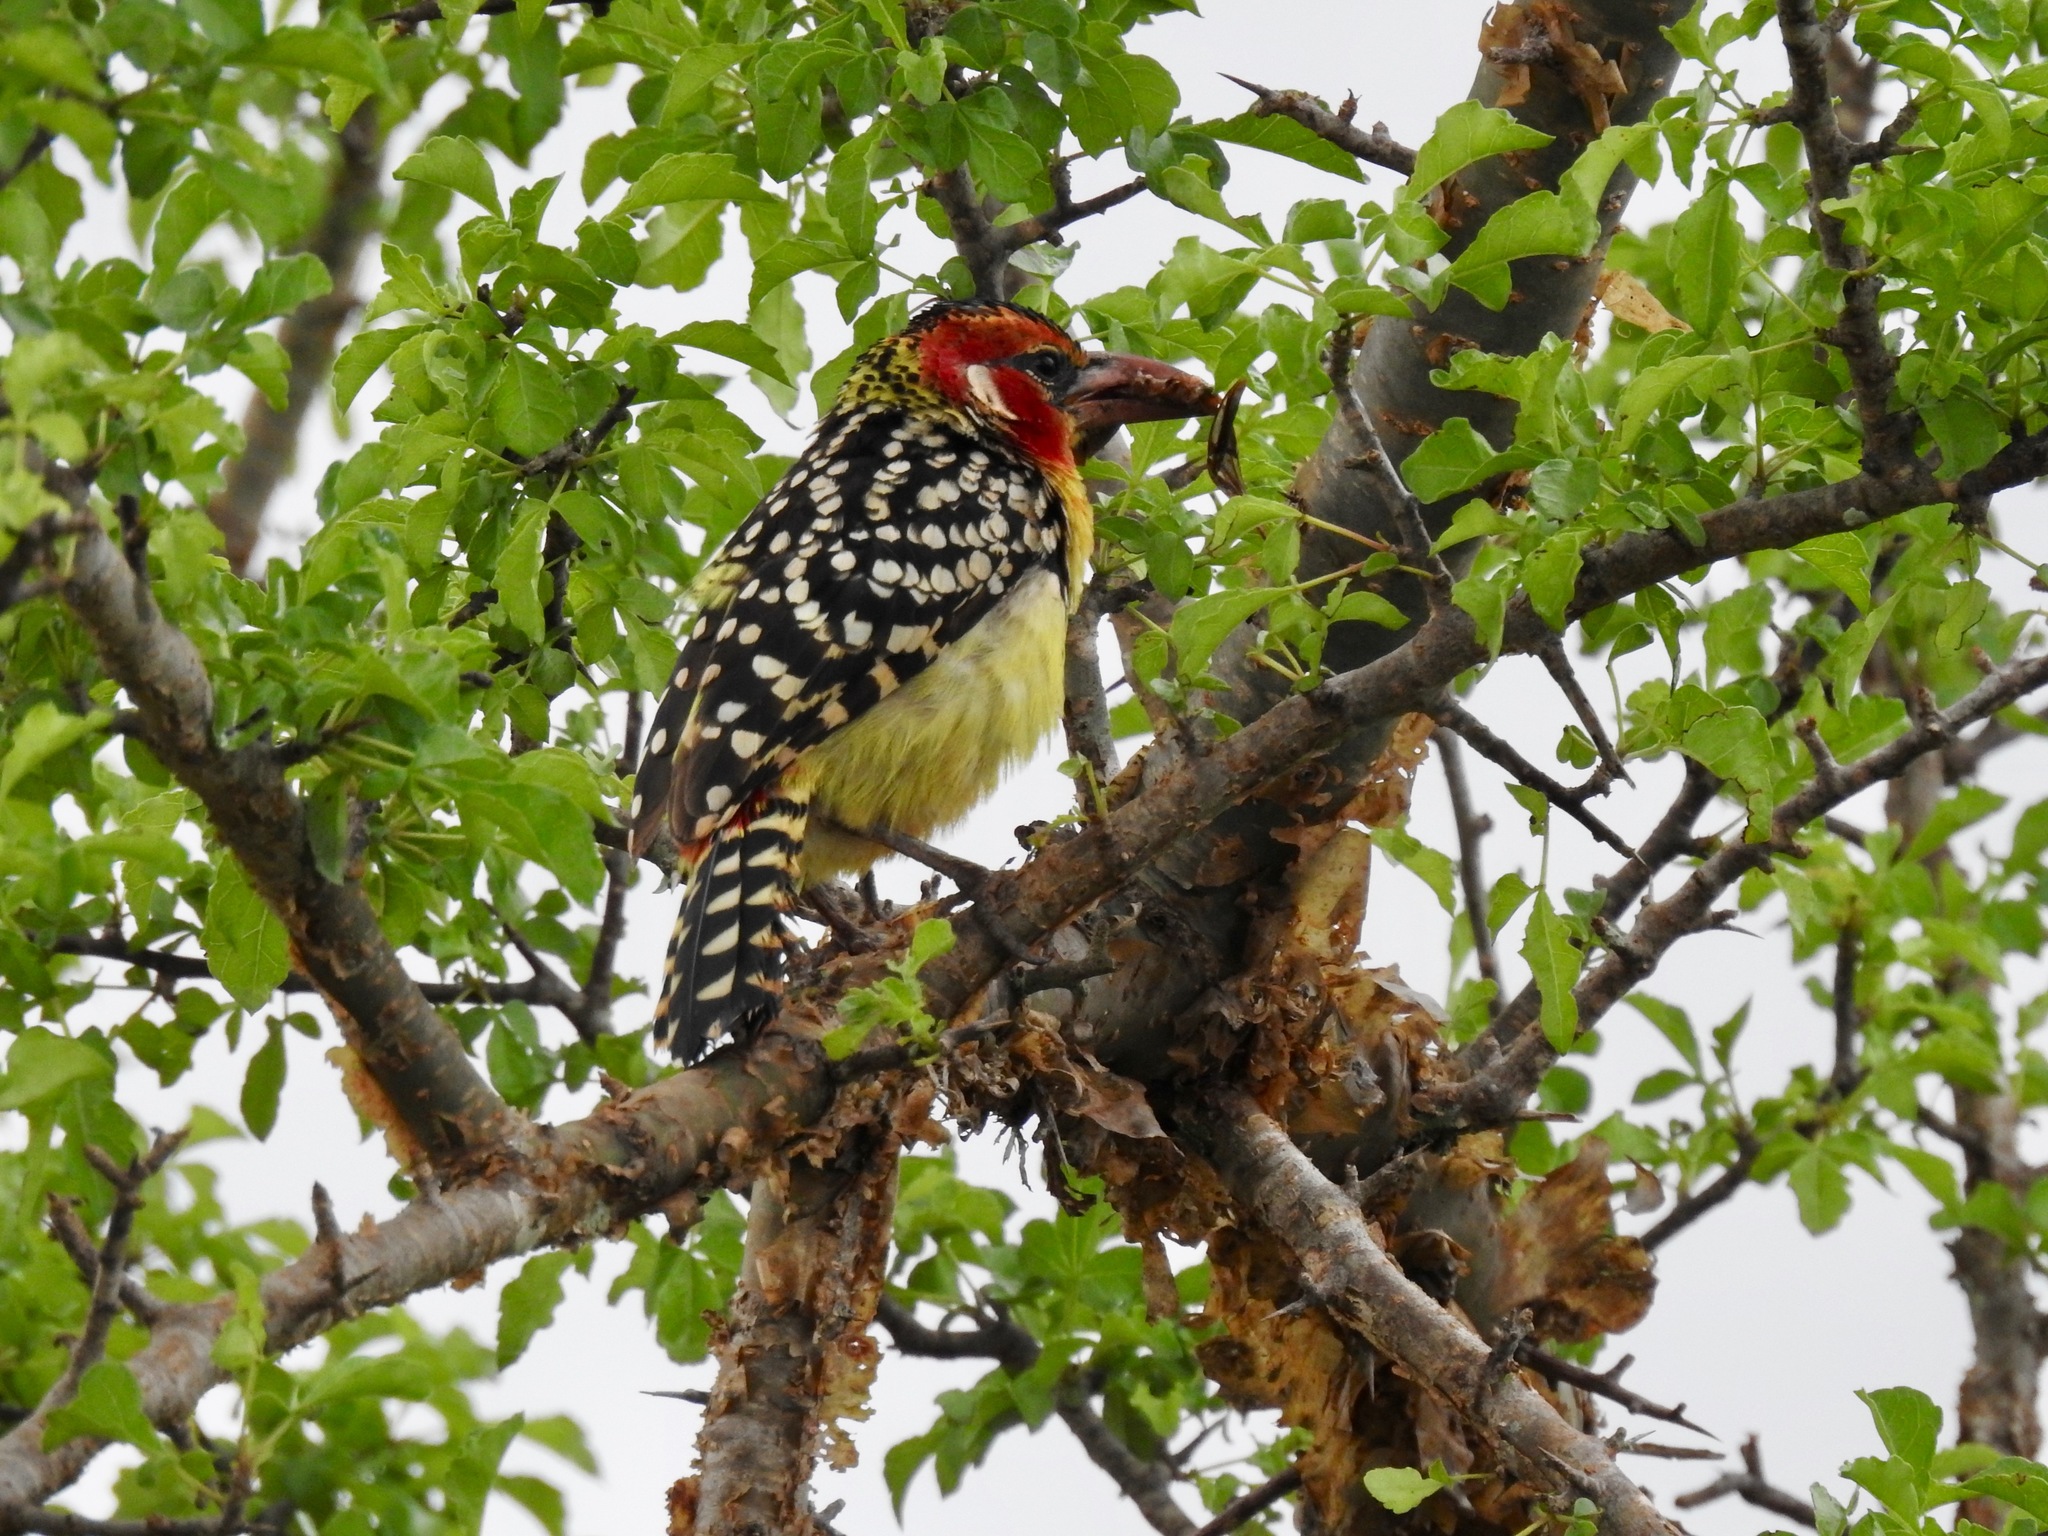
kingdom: Animalia
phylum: Chordata
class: Aves
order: Piciformes
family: Lybiidae
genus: Trachyphonus
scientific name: Trachyphonus erythrocephalus
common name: Red-and-yellow barbet
